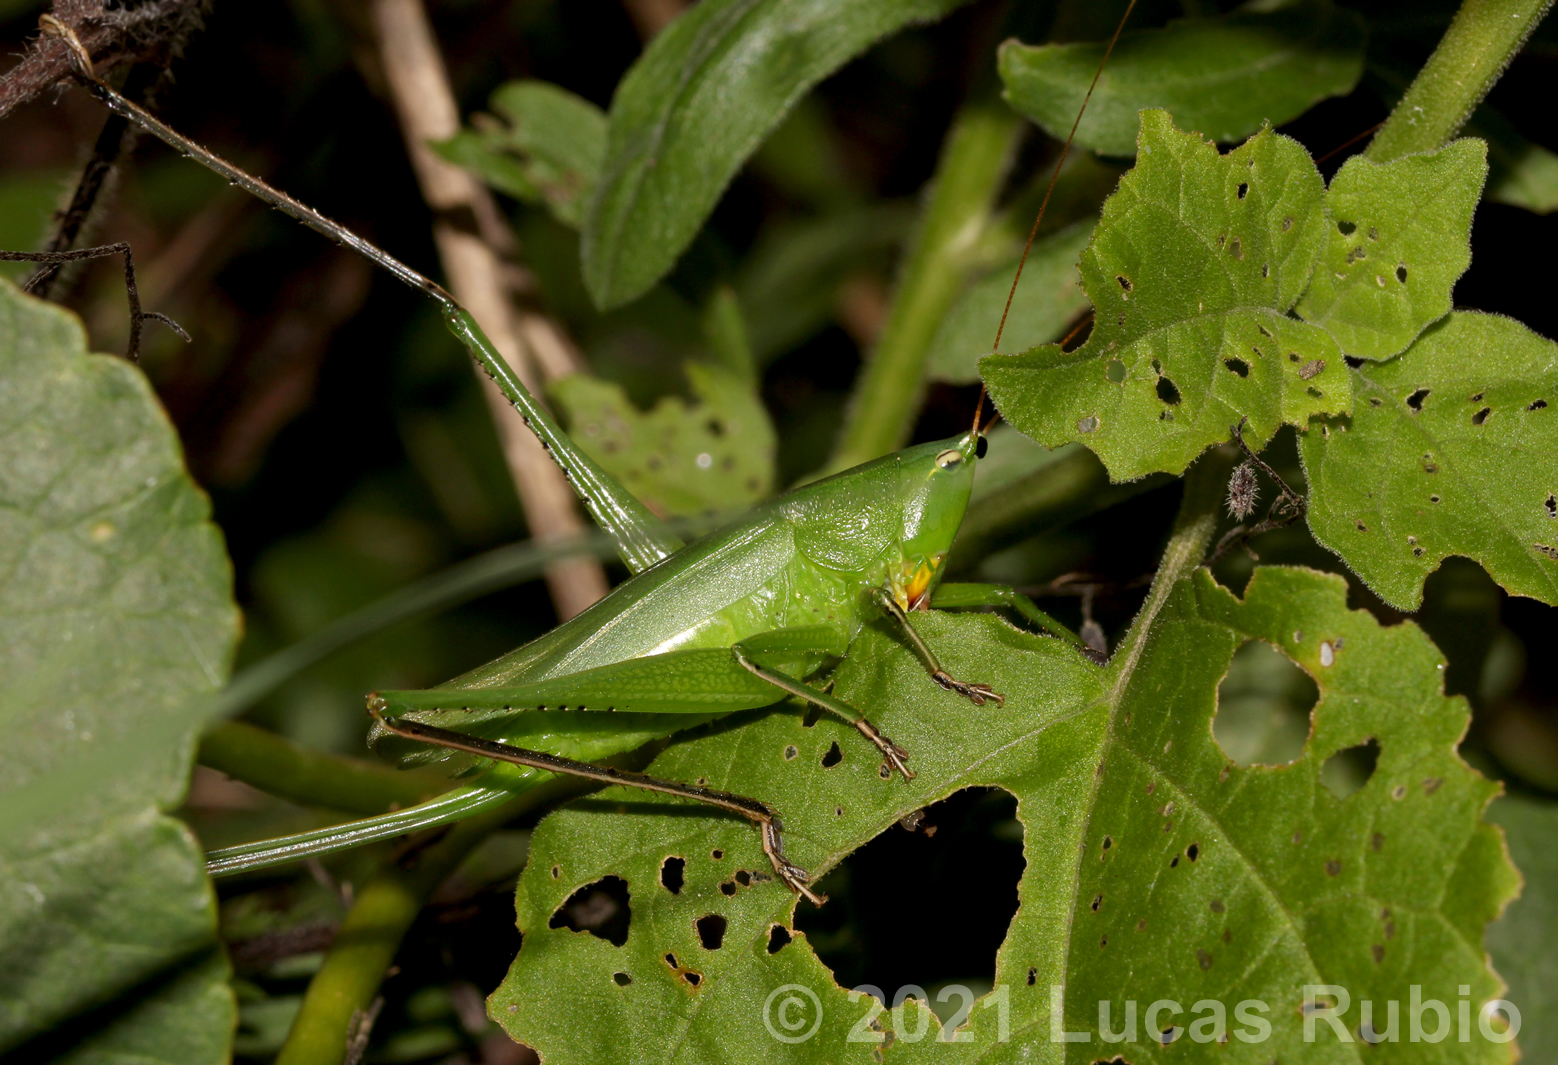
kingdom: Animalia
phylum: Arthropoda
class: Insecta
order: Orthoptera
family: Tettigoniidae
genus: Neoconocephalus
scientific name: Neoconocephalus brevis
